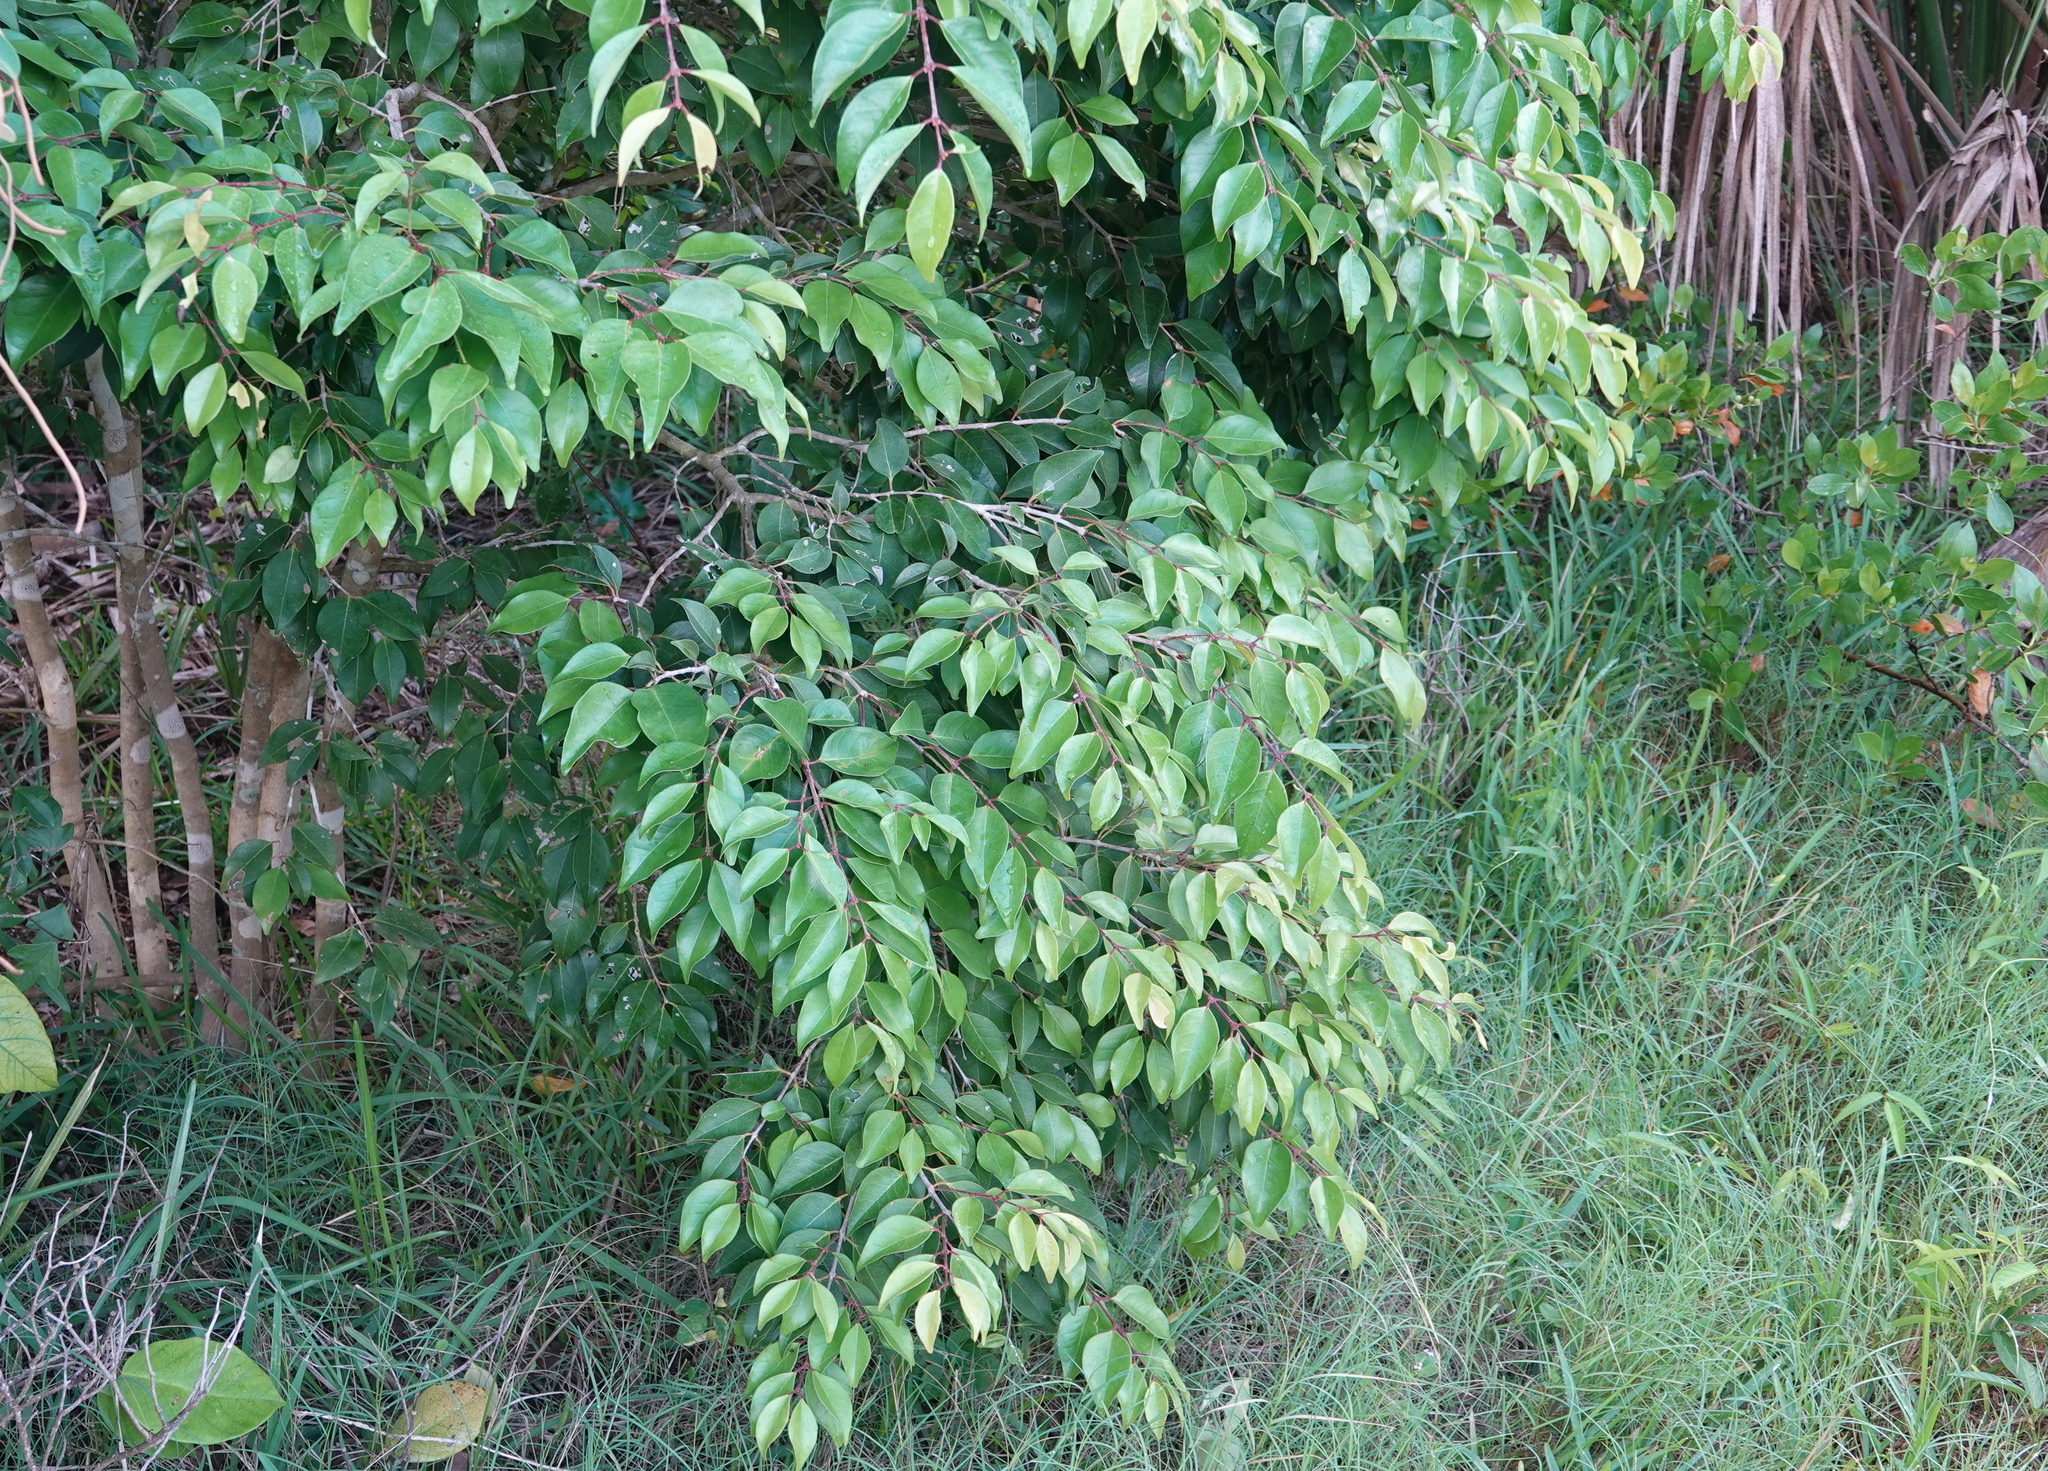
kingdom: Plantae
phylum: Tracheophyta
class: Magnoliopsida
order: Myrtales
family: Myrtaceae
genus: Eugenia
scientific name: Eugenia axillaris
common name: Choaky berry
